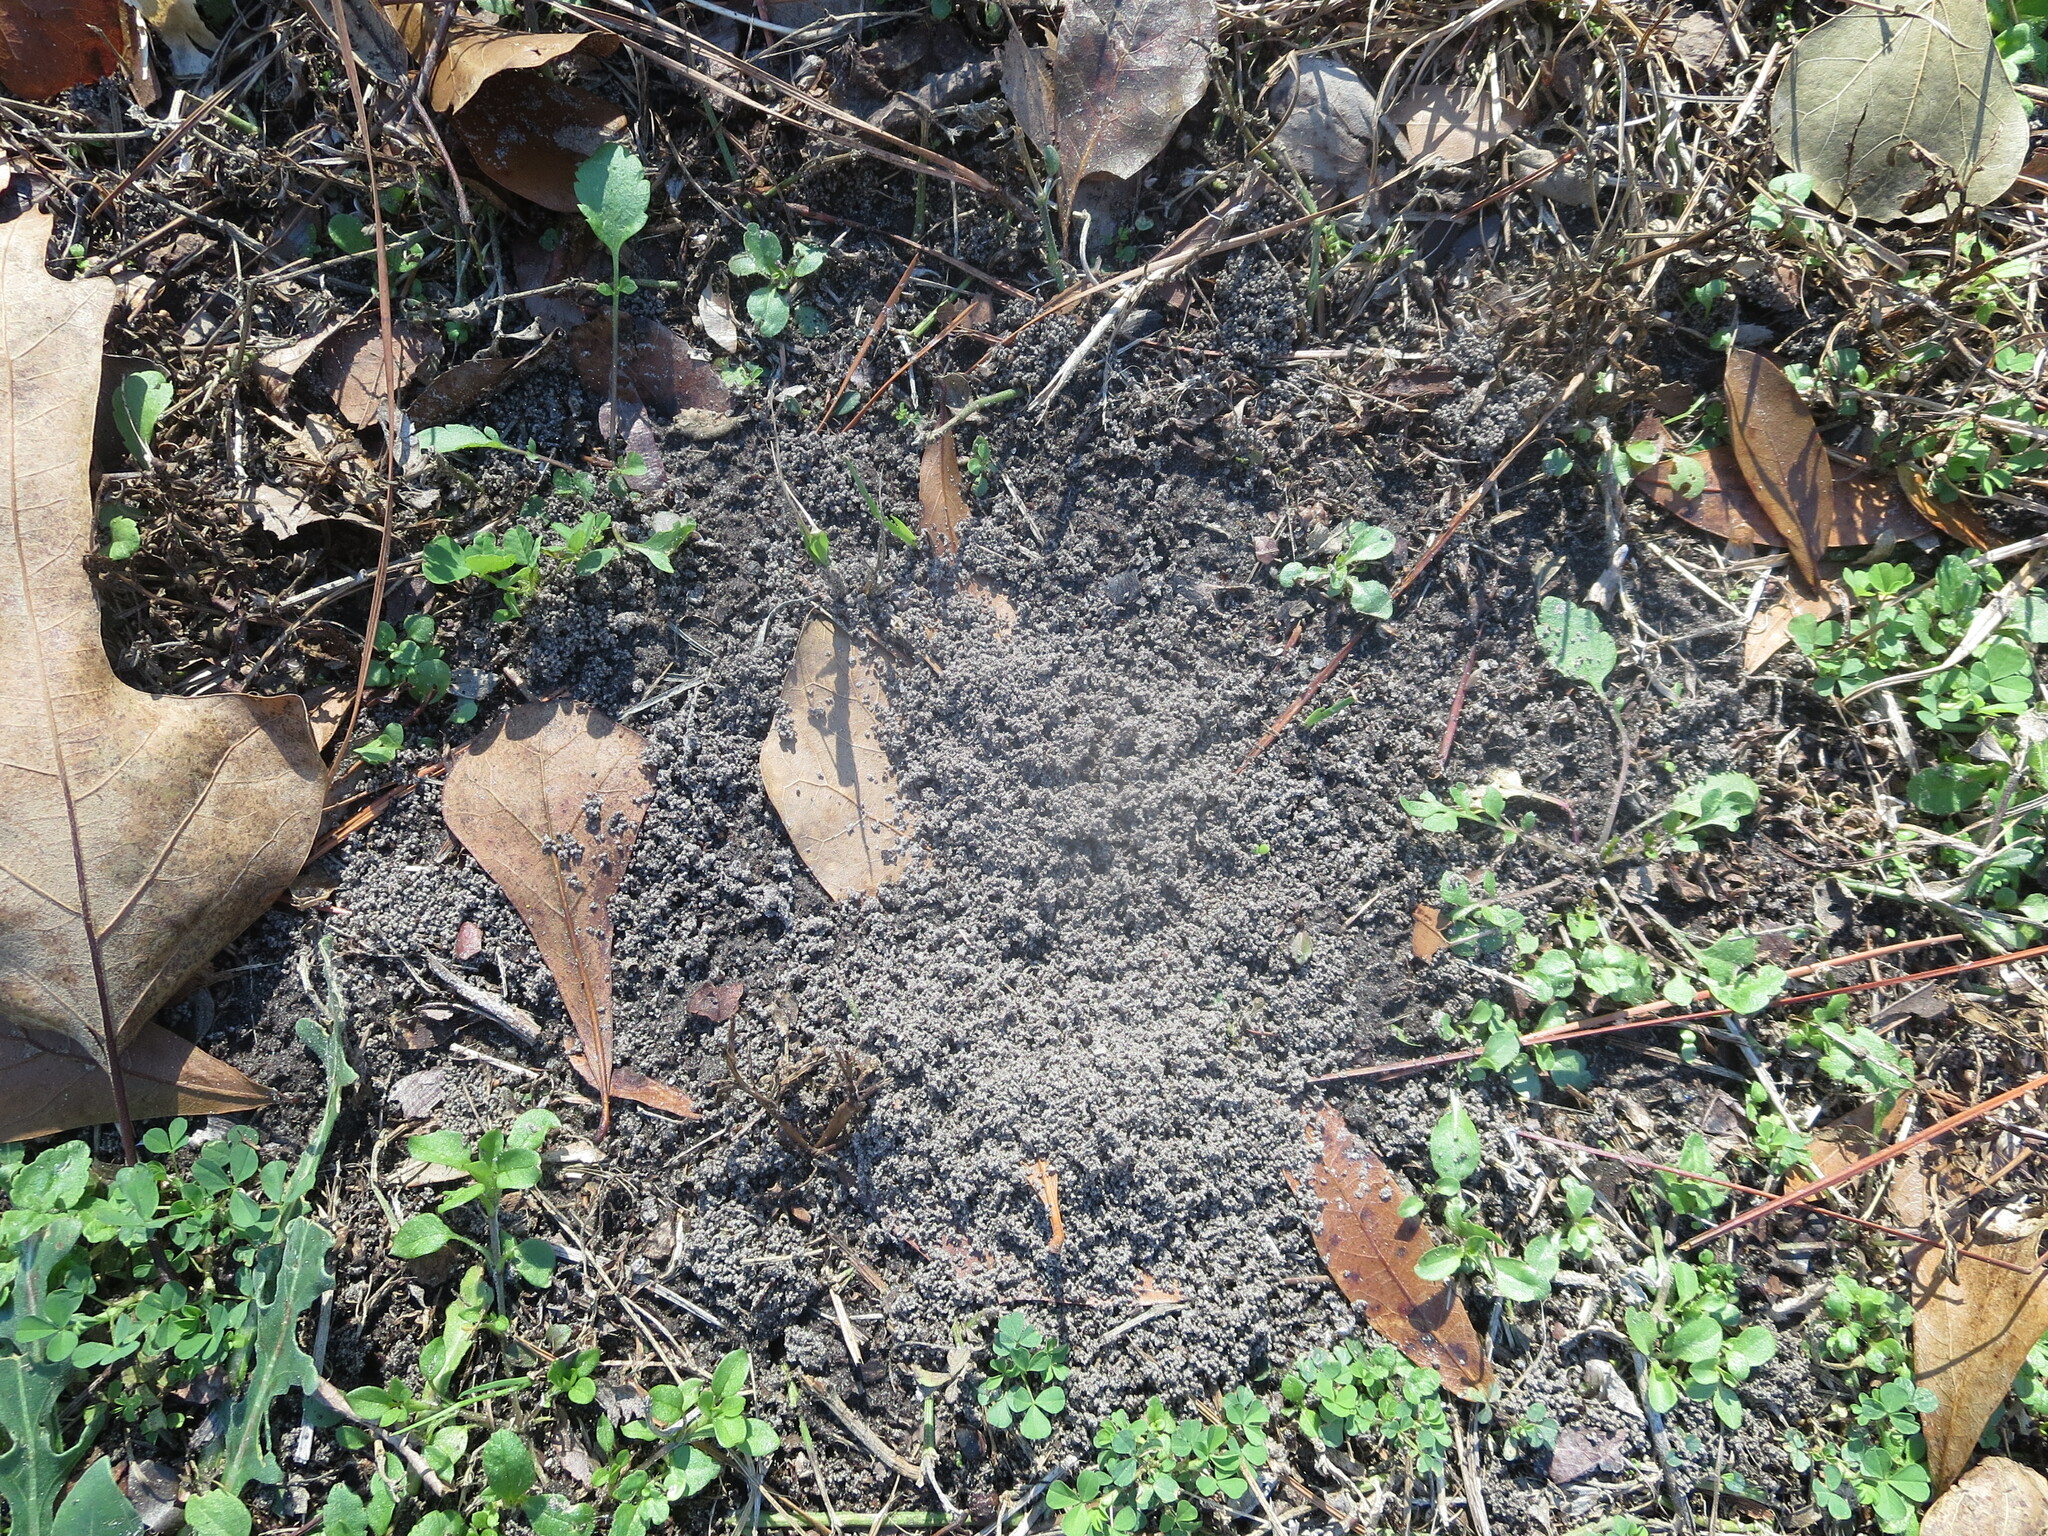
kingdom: Animalia
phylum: Arthropoda
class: Insecta
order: Hymenoptera
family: Formicidae
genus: Solenopsis
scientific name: Solenopsis invicta
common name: Red imported fire ant
